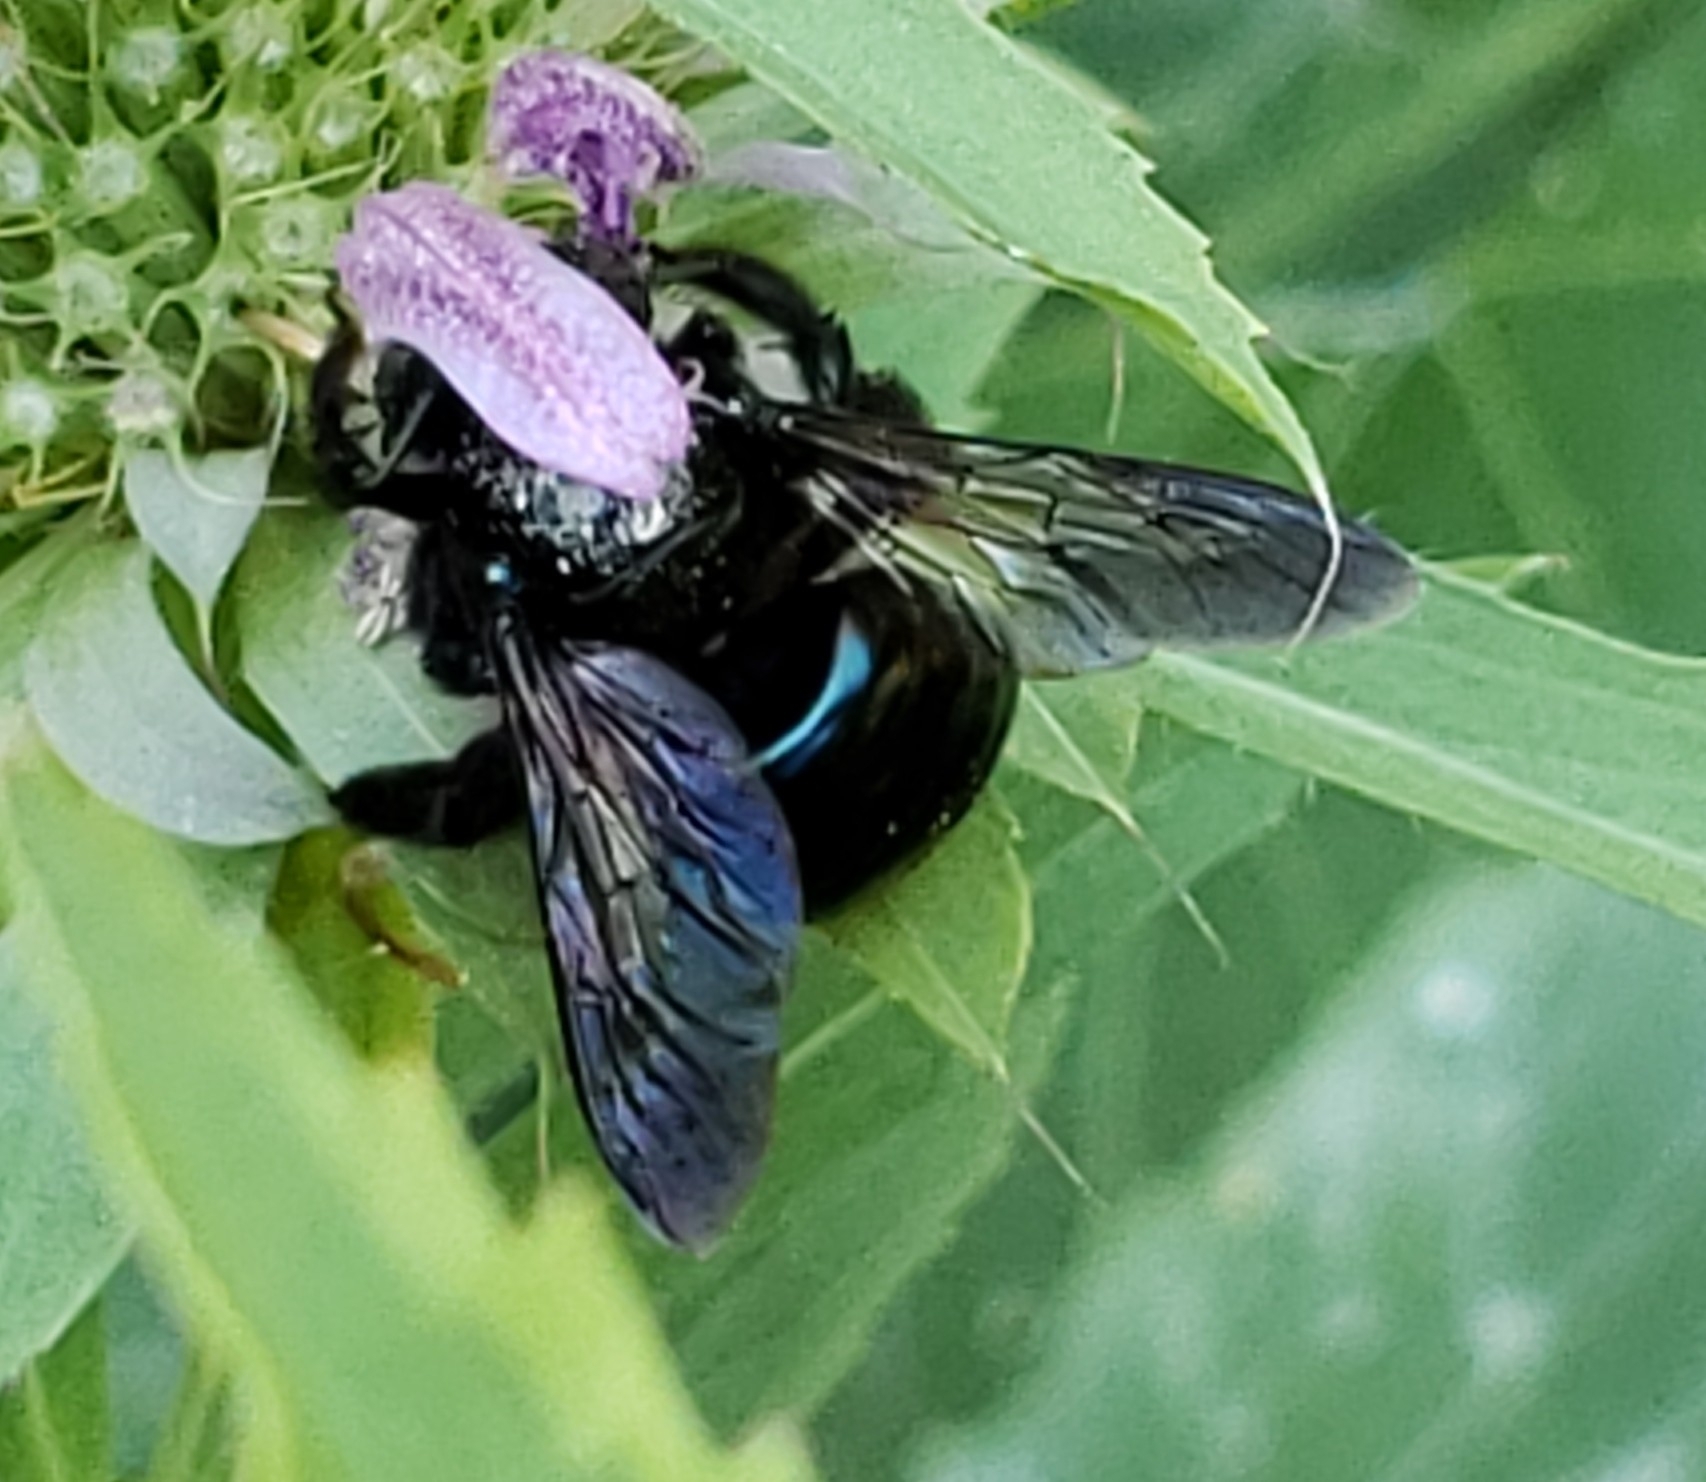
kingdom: Animalia
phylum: Arthropoda
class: Insecta
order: Hymenoptera
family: Apidae
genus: Xylocopa
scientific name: Xylocopa micans
